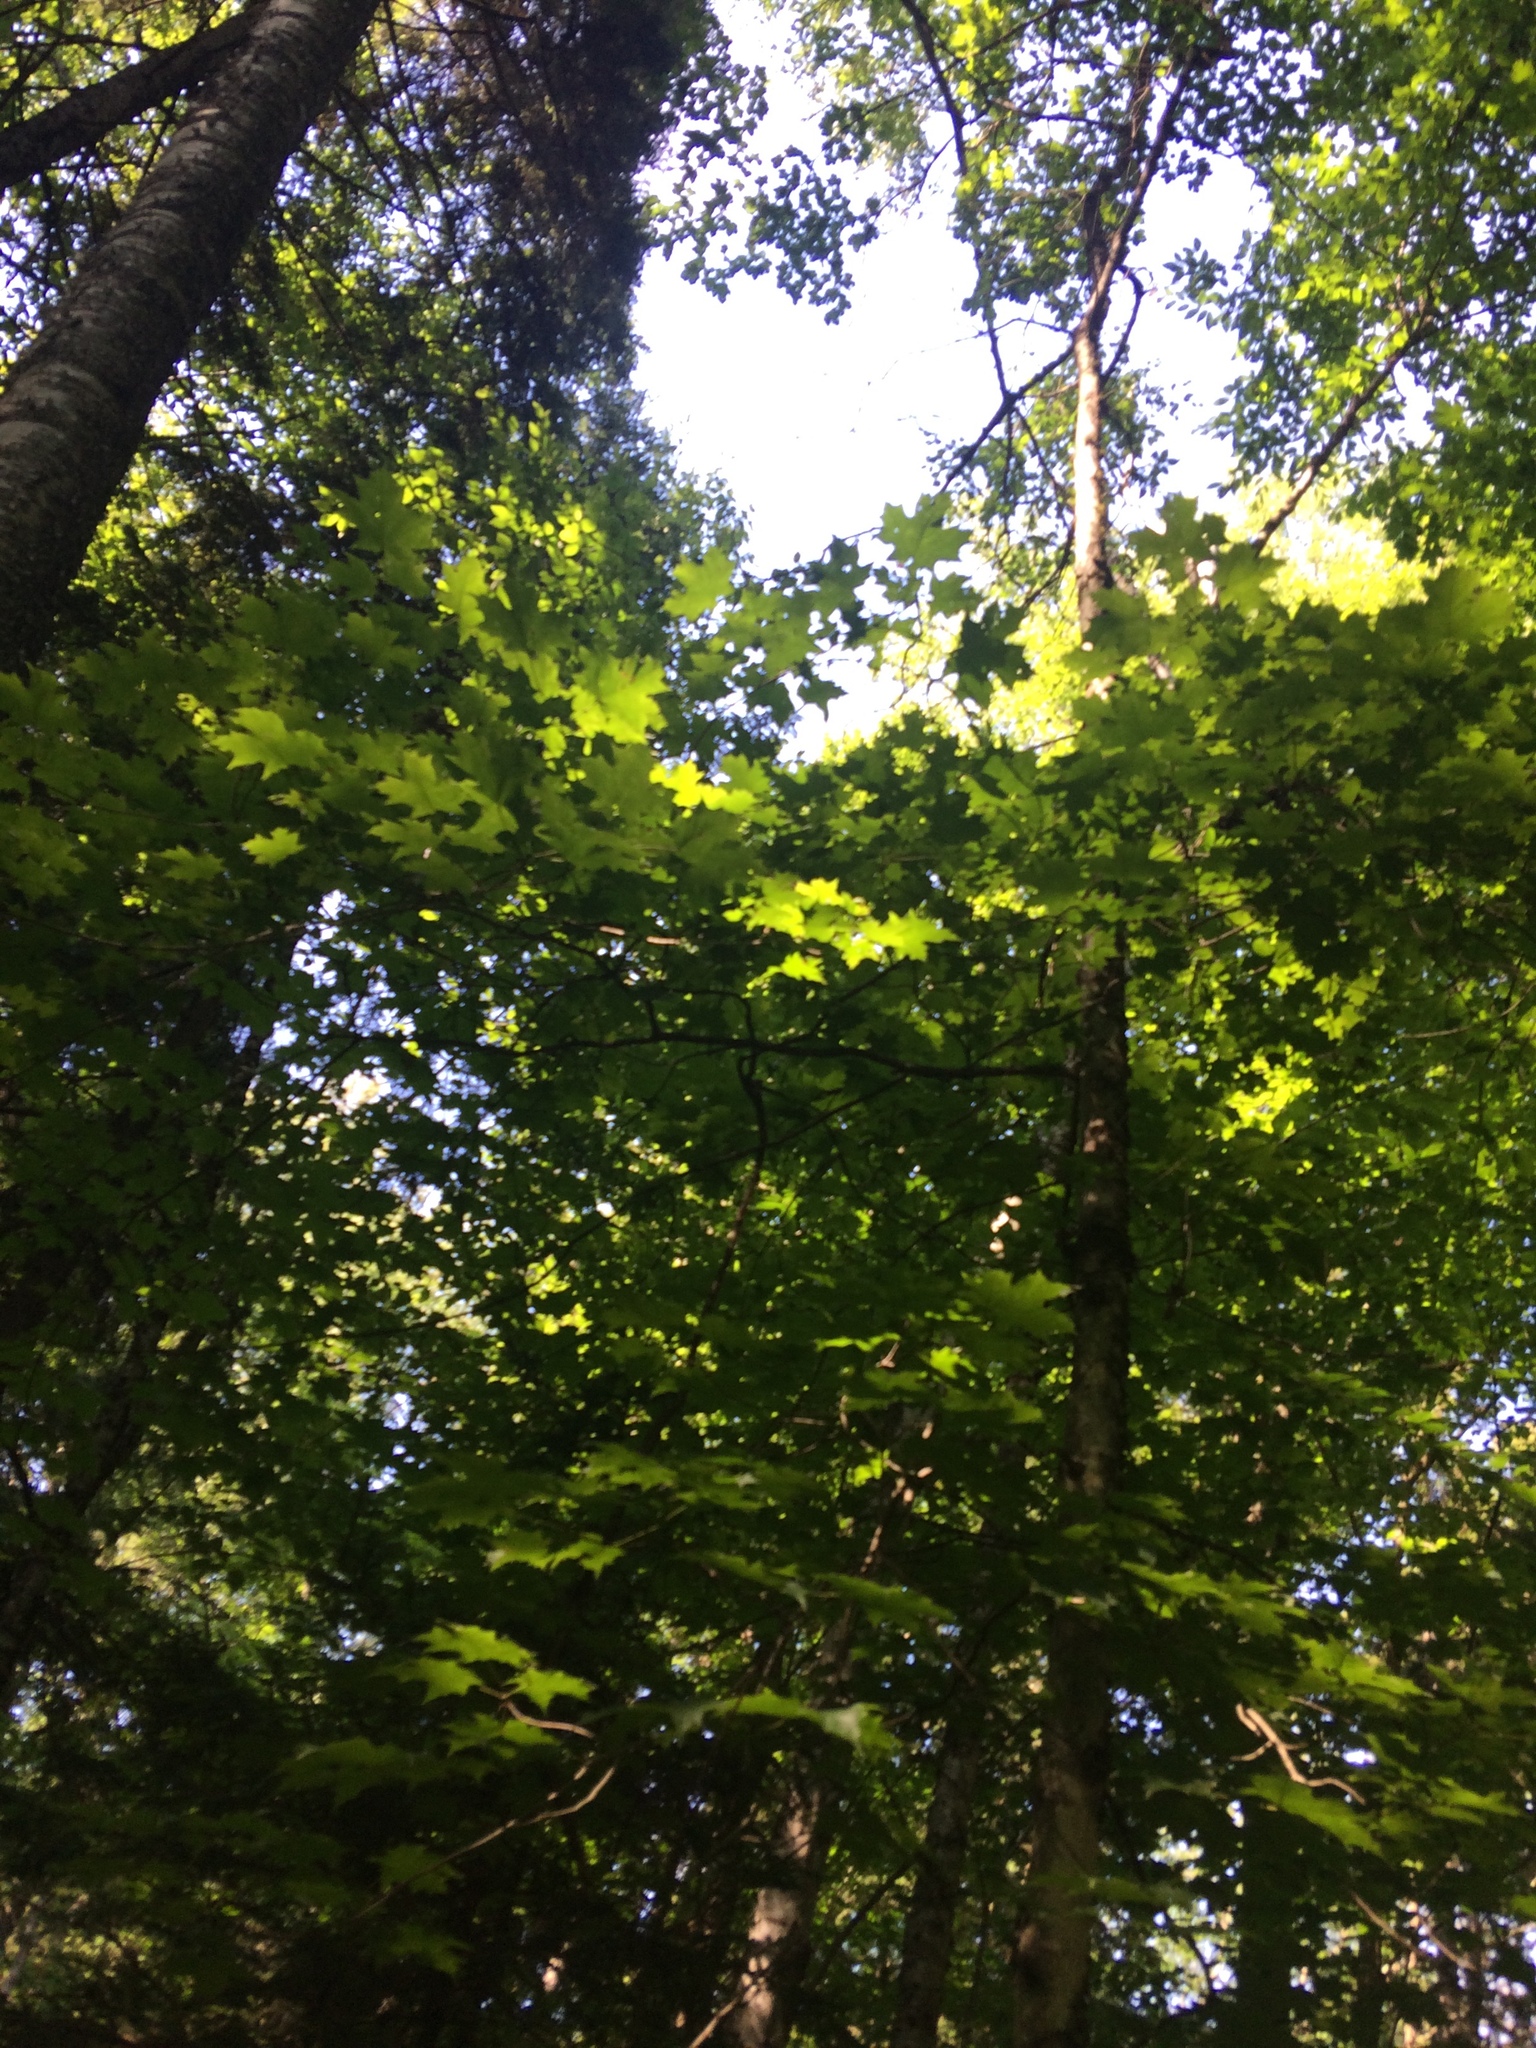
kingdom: Plantae
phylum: Tracheophyta
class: Magnoliopsida
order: Sapindales
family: Sapindaceae
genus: Acer
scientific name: Acer saccharum
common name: Sugar maple
